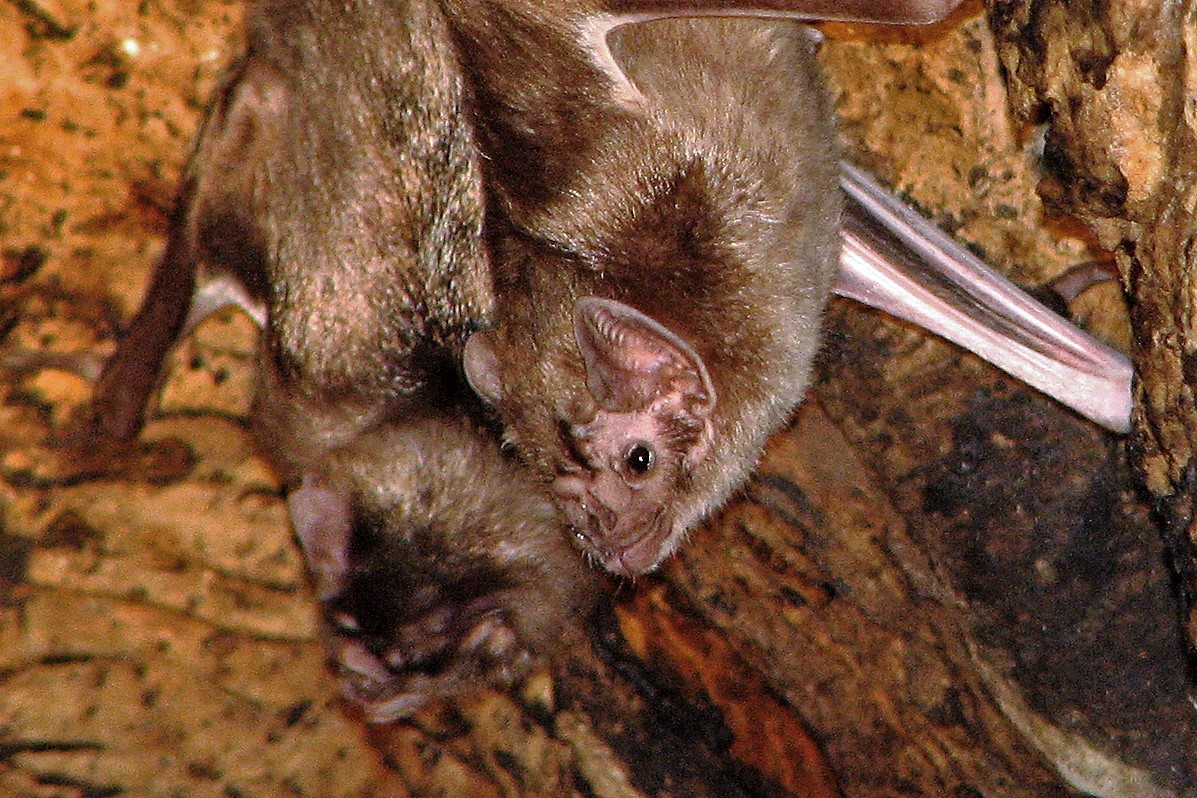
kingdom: Animalia
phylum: Chordata
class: Mammalia
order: Chiroptera
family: Phyllostomidae
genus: Desmodus
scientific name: Desmodus rotundus
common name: Common vampire bat
